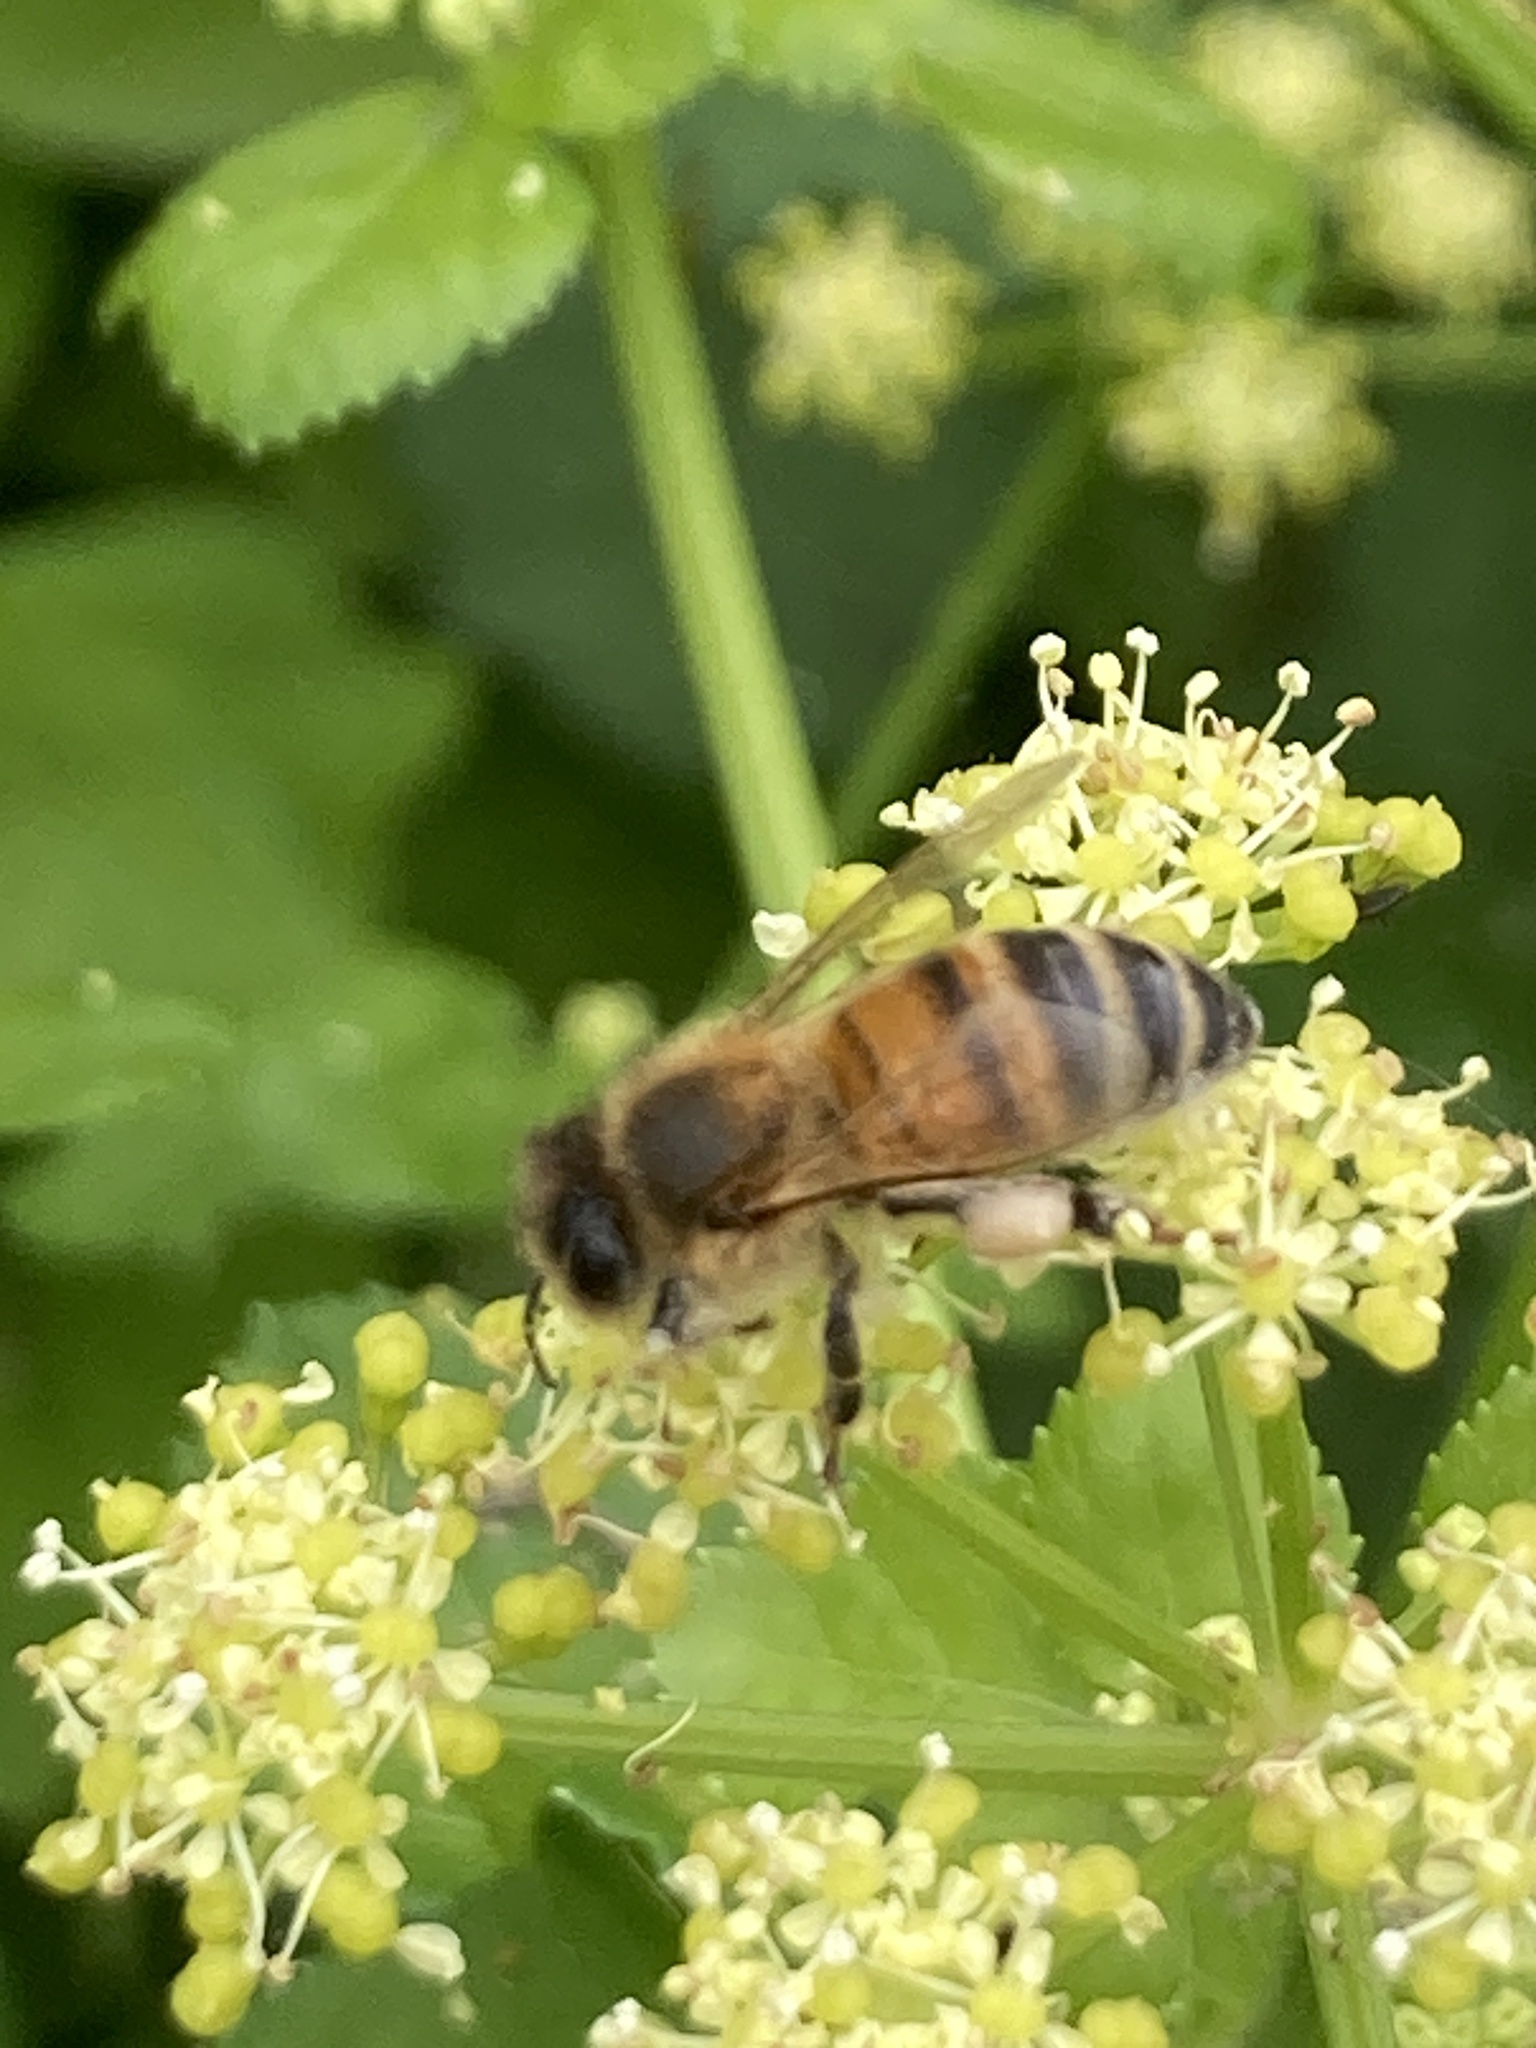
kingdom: Animalia
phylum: Arthropoda
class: Insecta
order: Hymenoptera
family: Apidae
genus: Apis
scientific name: Apis mellifera
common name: Honey bee
